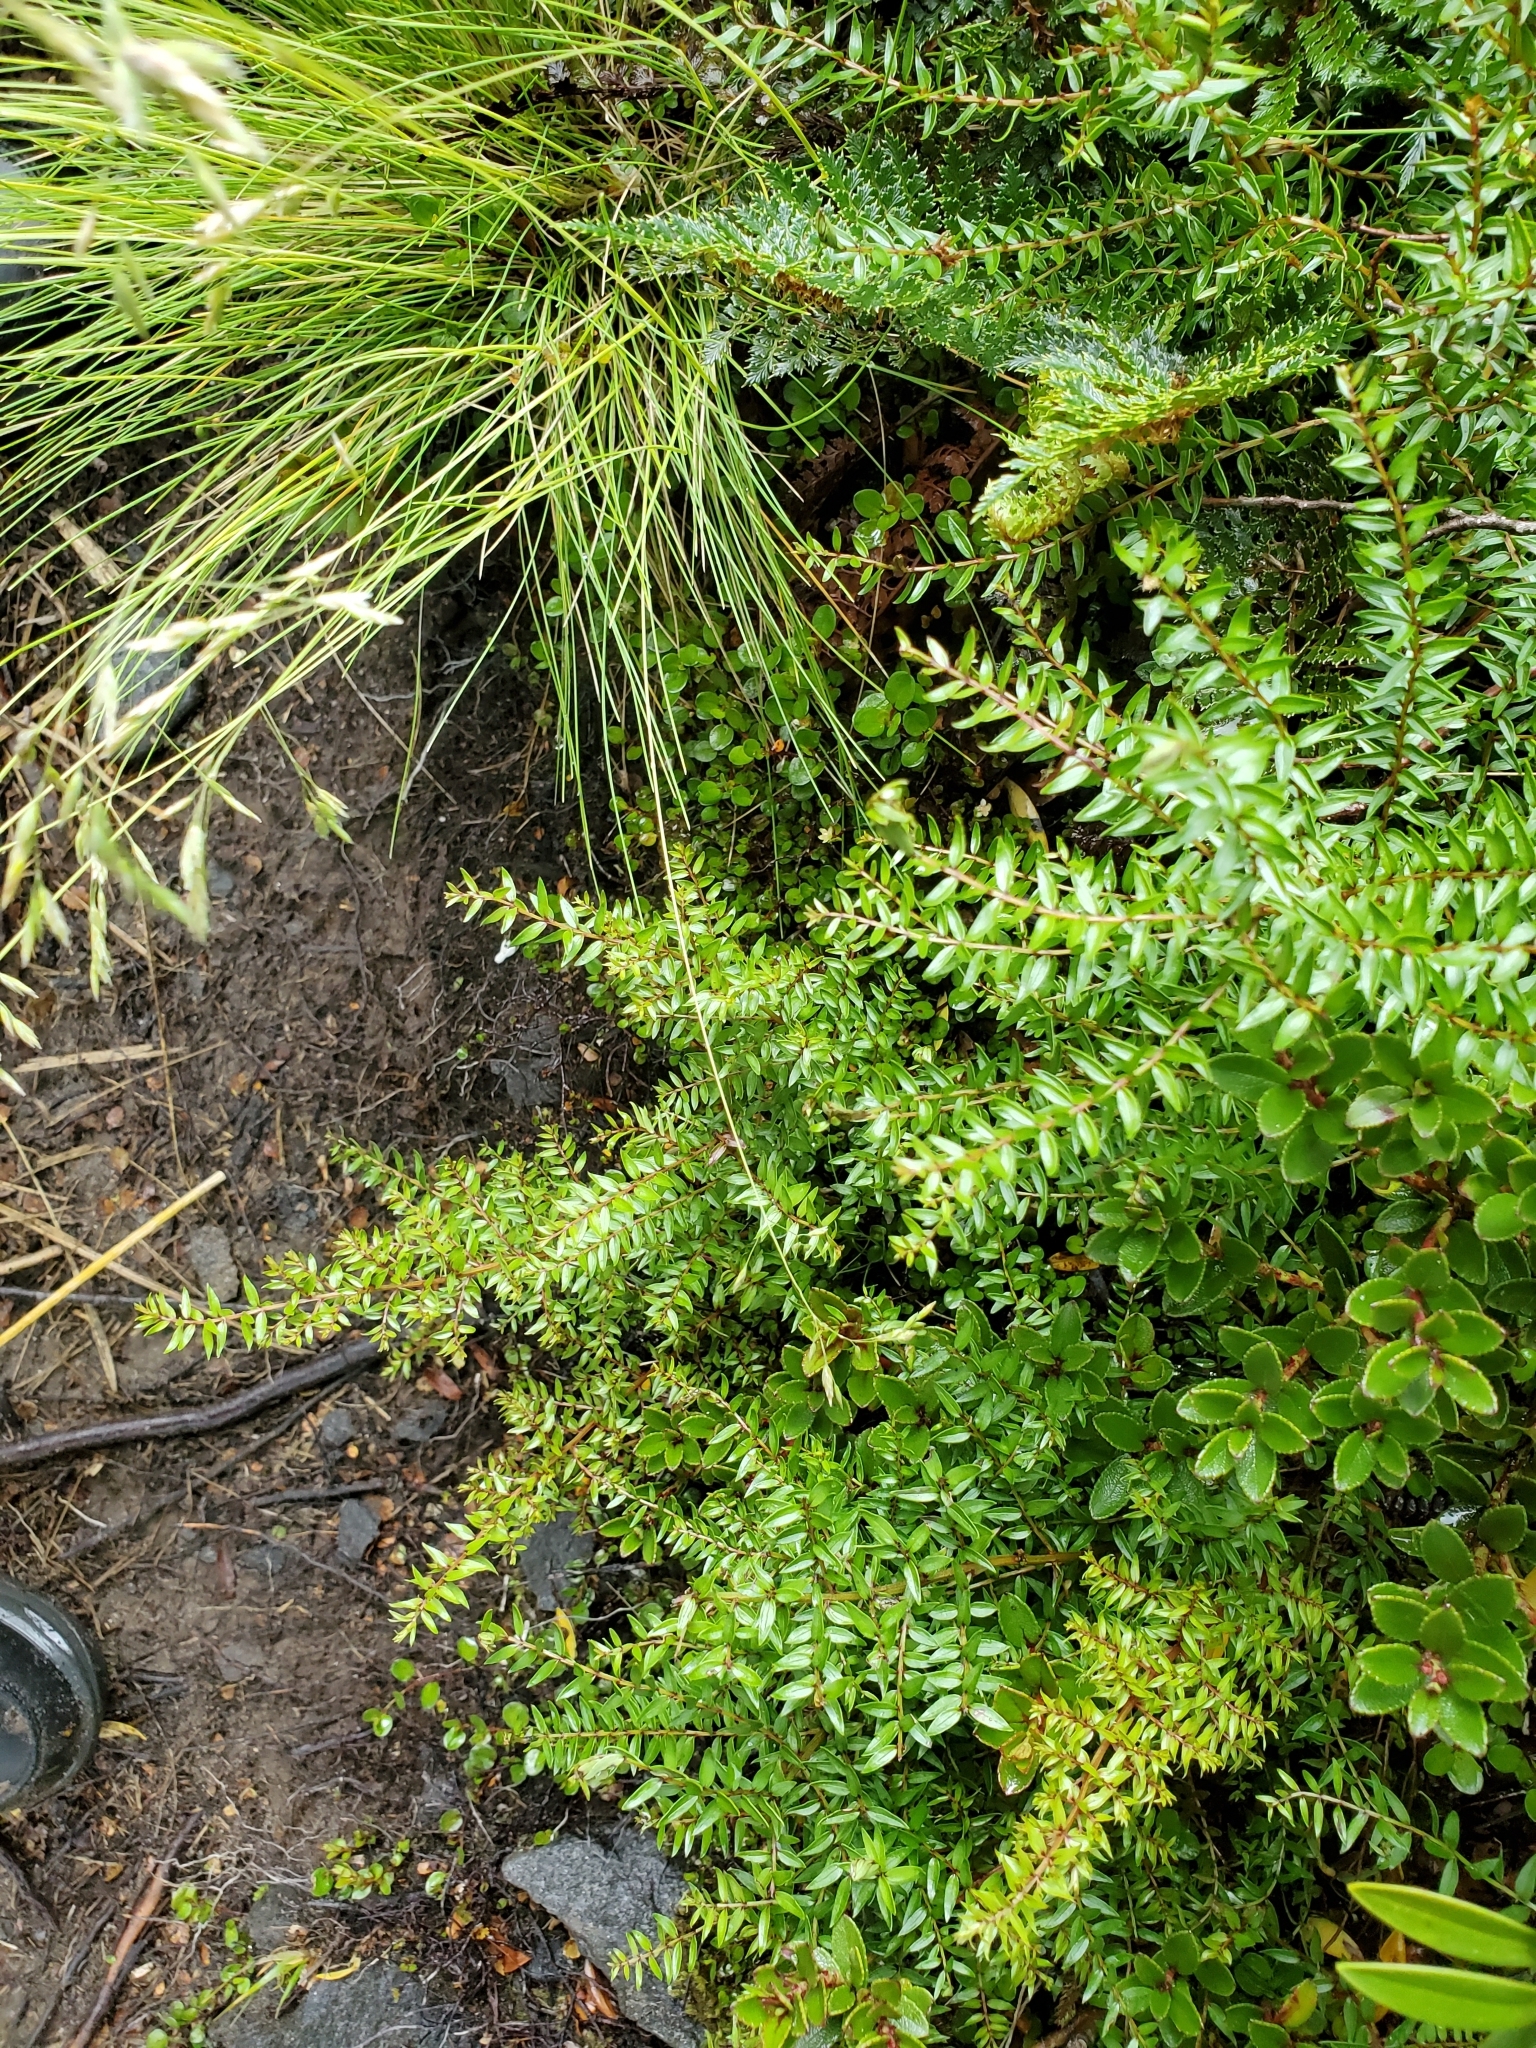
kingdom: Plantae
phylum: Tracheophyta
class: Magnoliopsida
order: Cucurbitales
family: Coriariaceae
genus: Coriaria
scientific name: Coriaria plumosa
